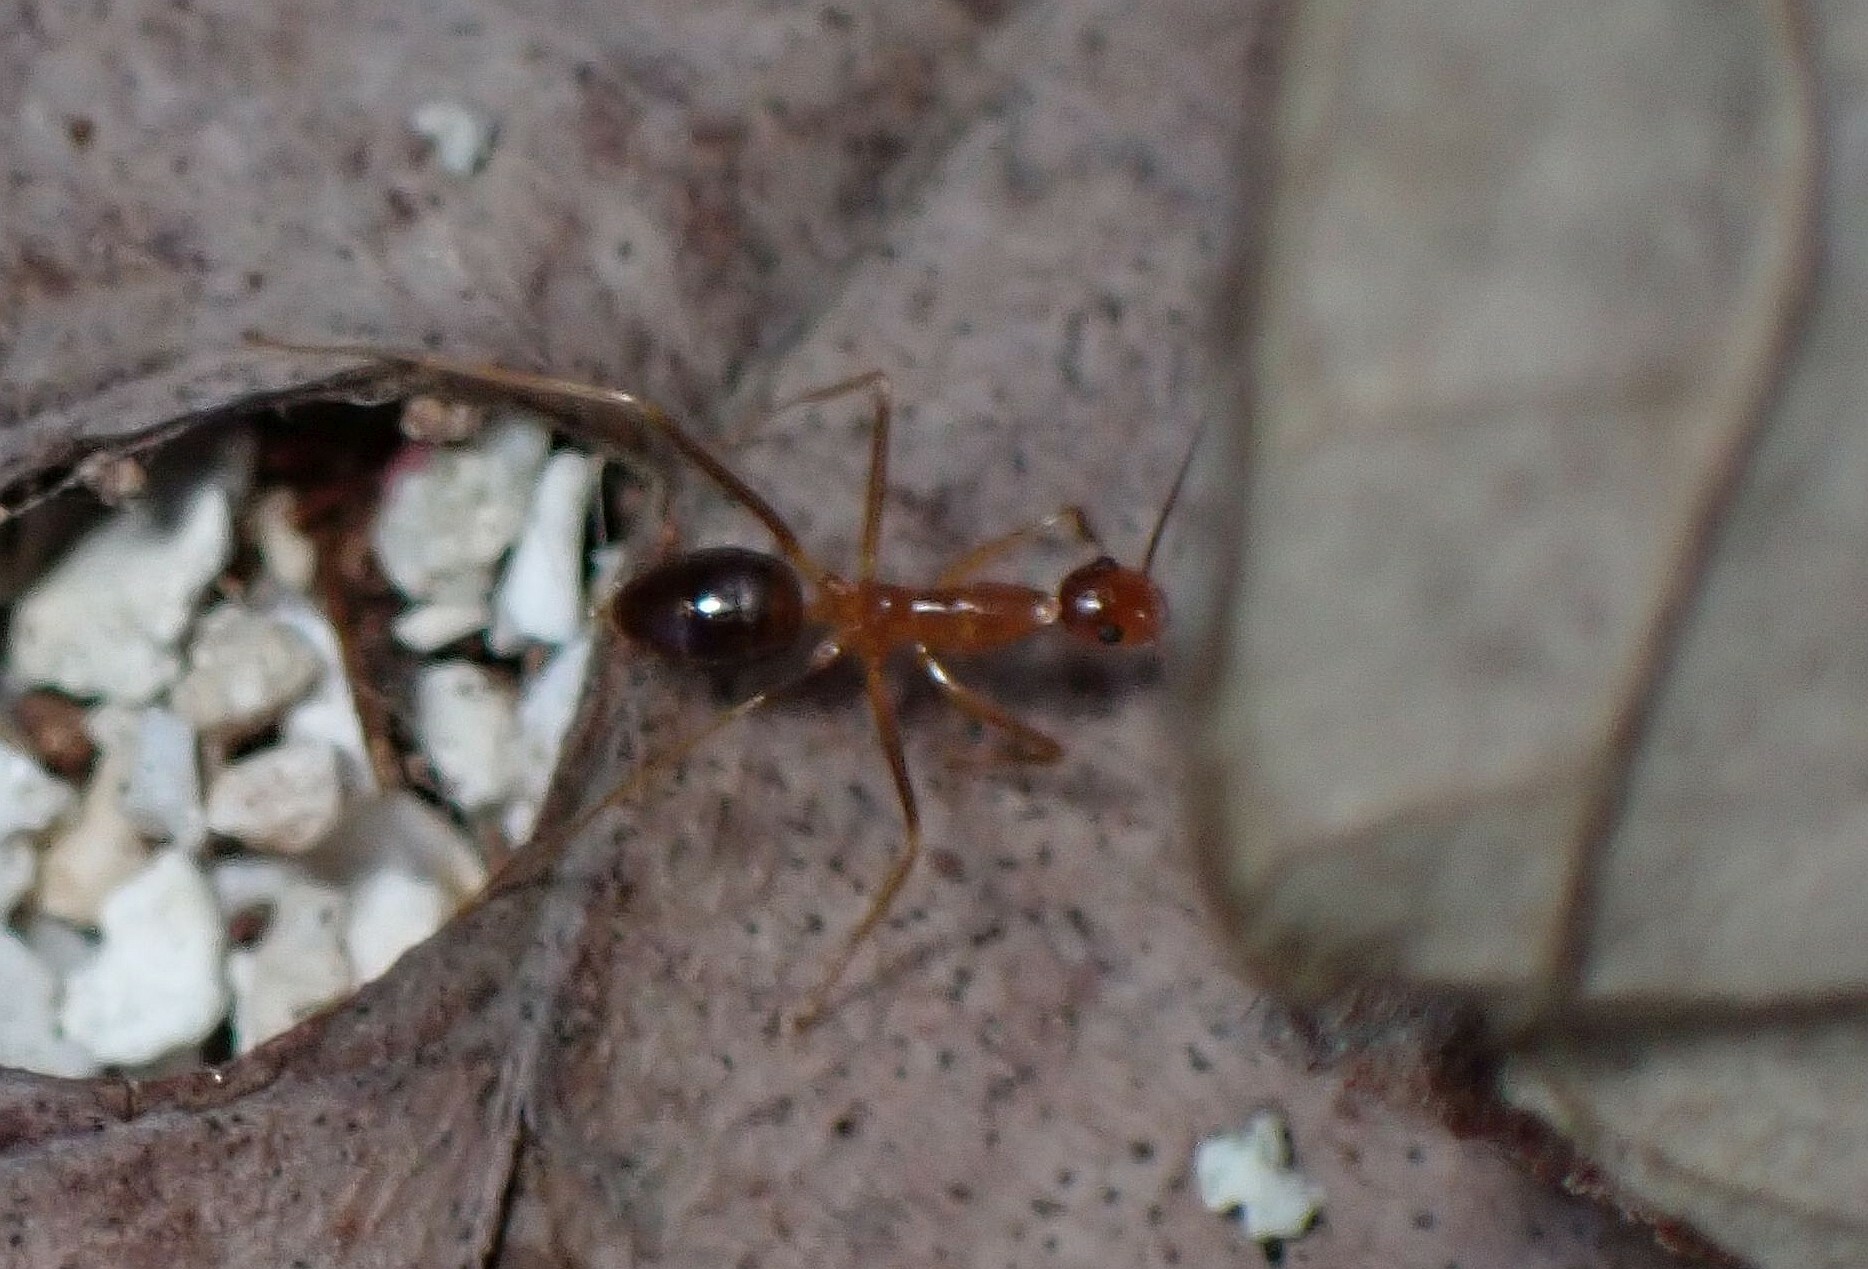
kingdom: Animalia
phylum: Arthropoda
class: Insecta
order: Hymenoptera
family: Formicidae
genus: Anoplolepis
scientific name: Anoplolepis gracilipes
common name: Ant
